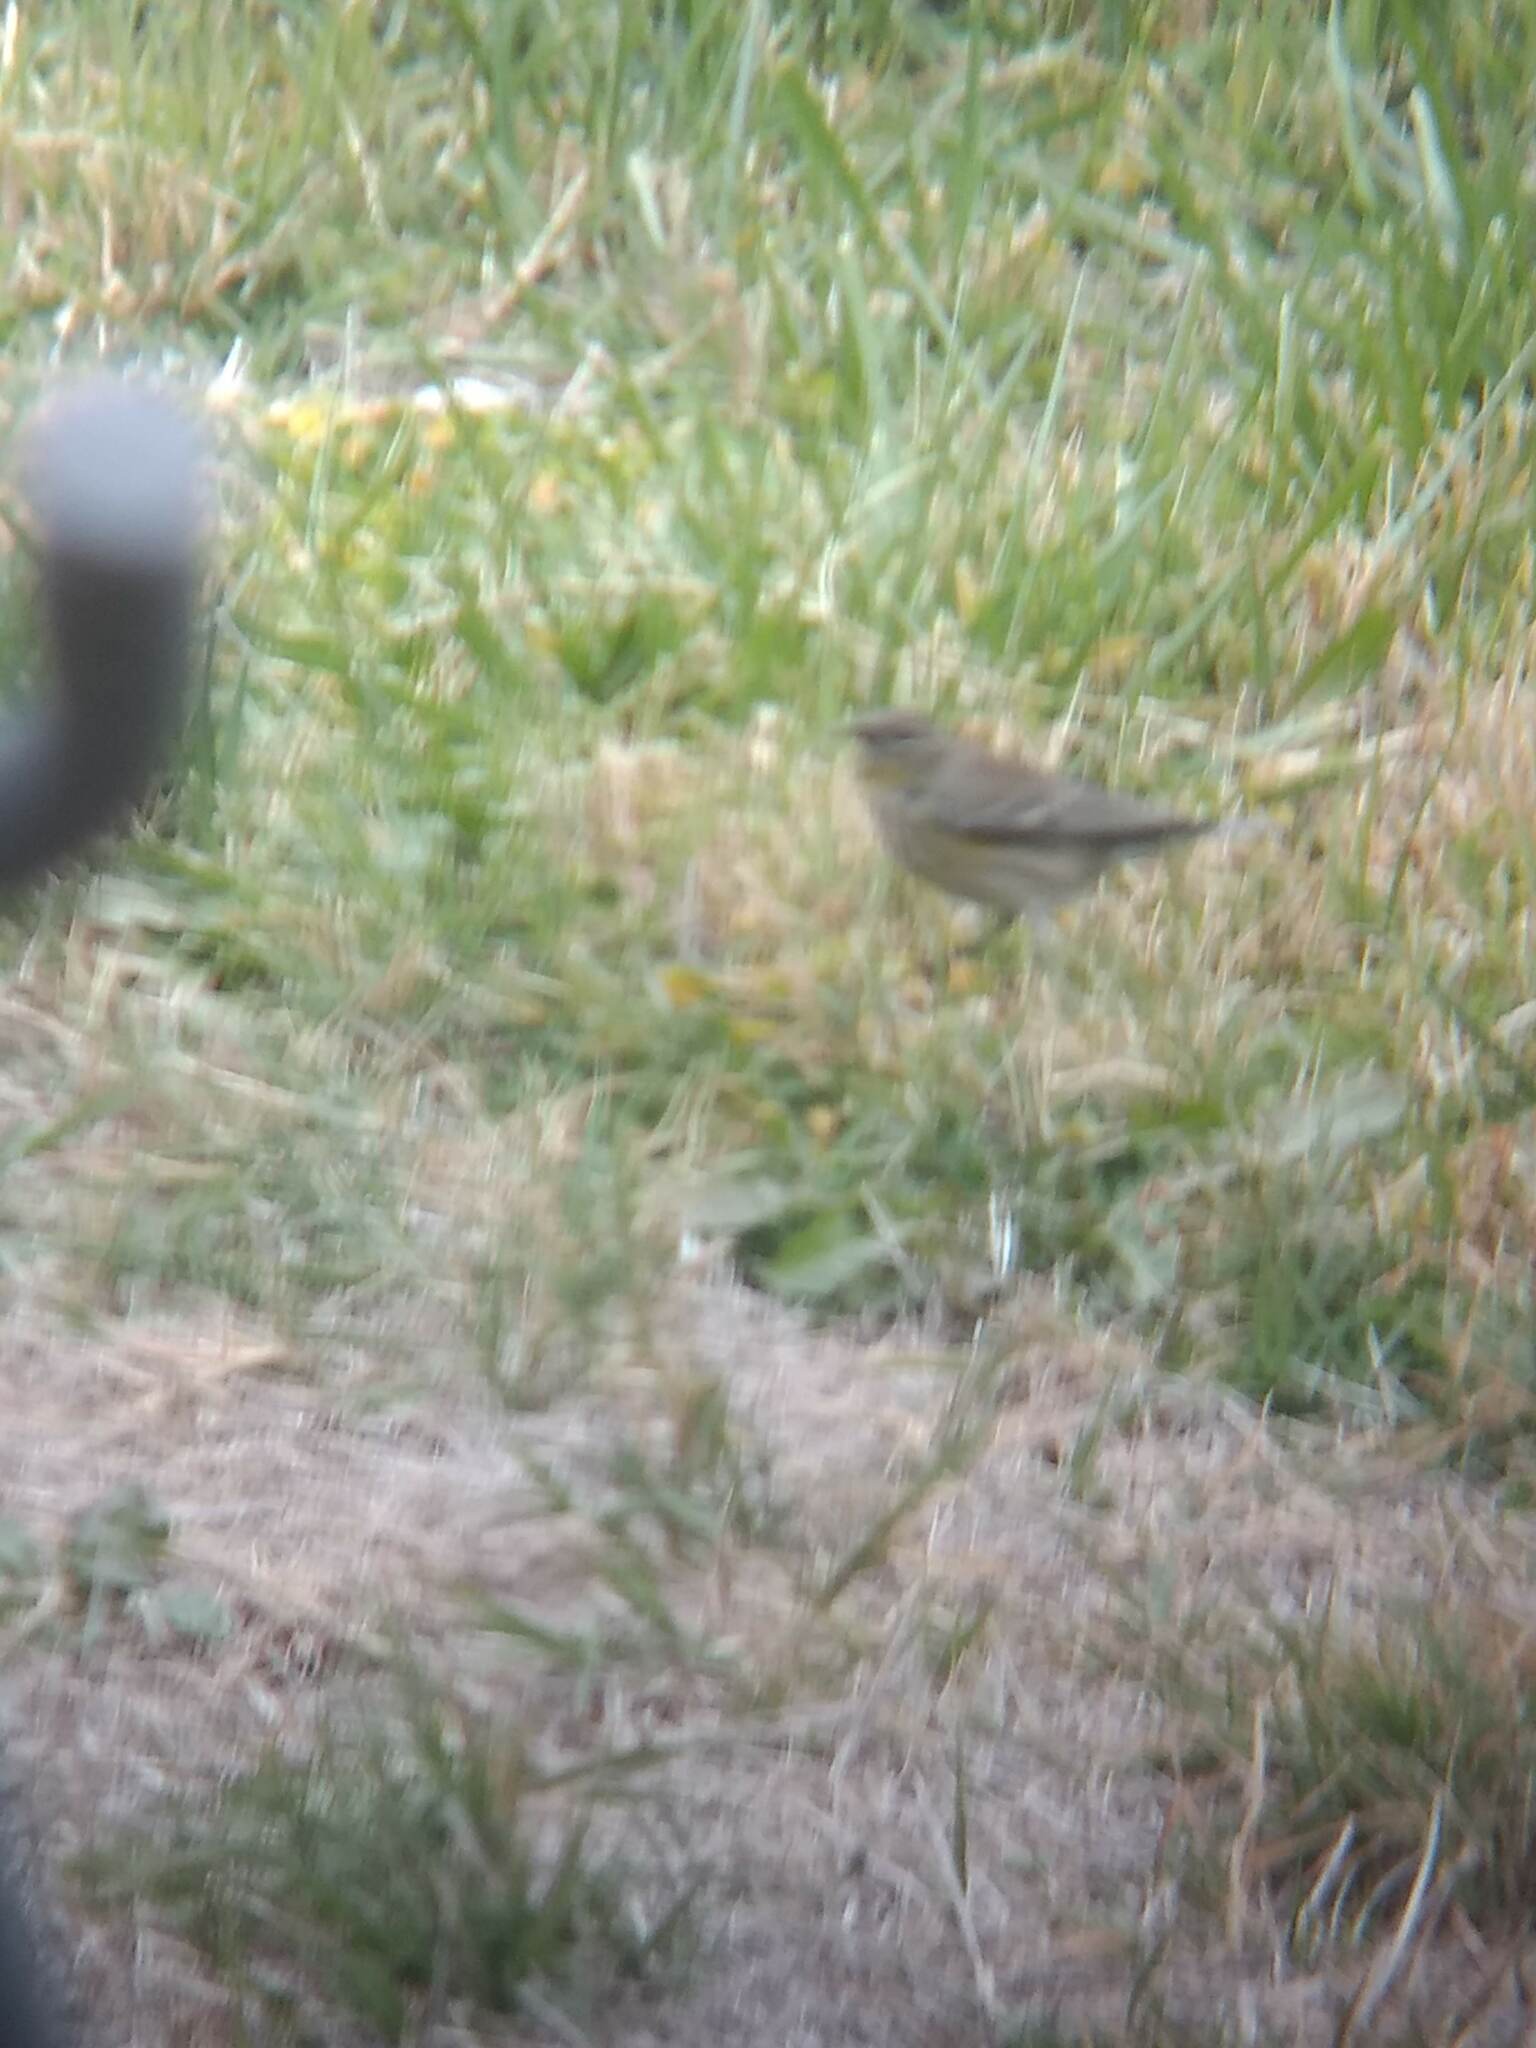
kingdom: Animalia
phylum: Chordata
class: Aves
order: Passeriformes
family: Parulidae
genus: Setophaga
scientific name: Setophaga coronata
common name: Myrtle warbler
